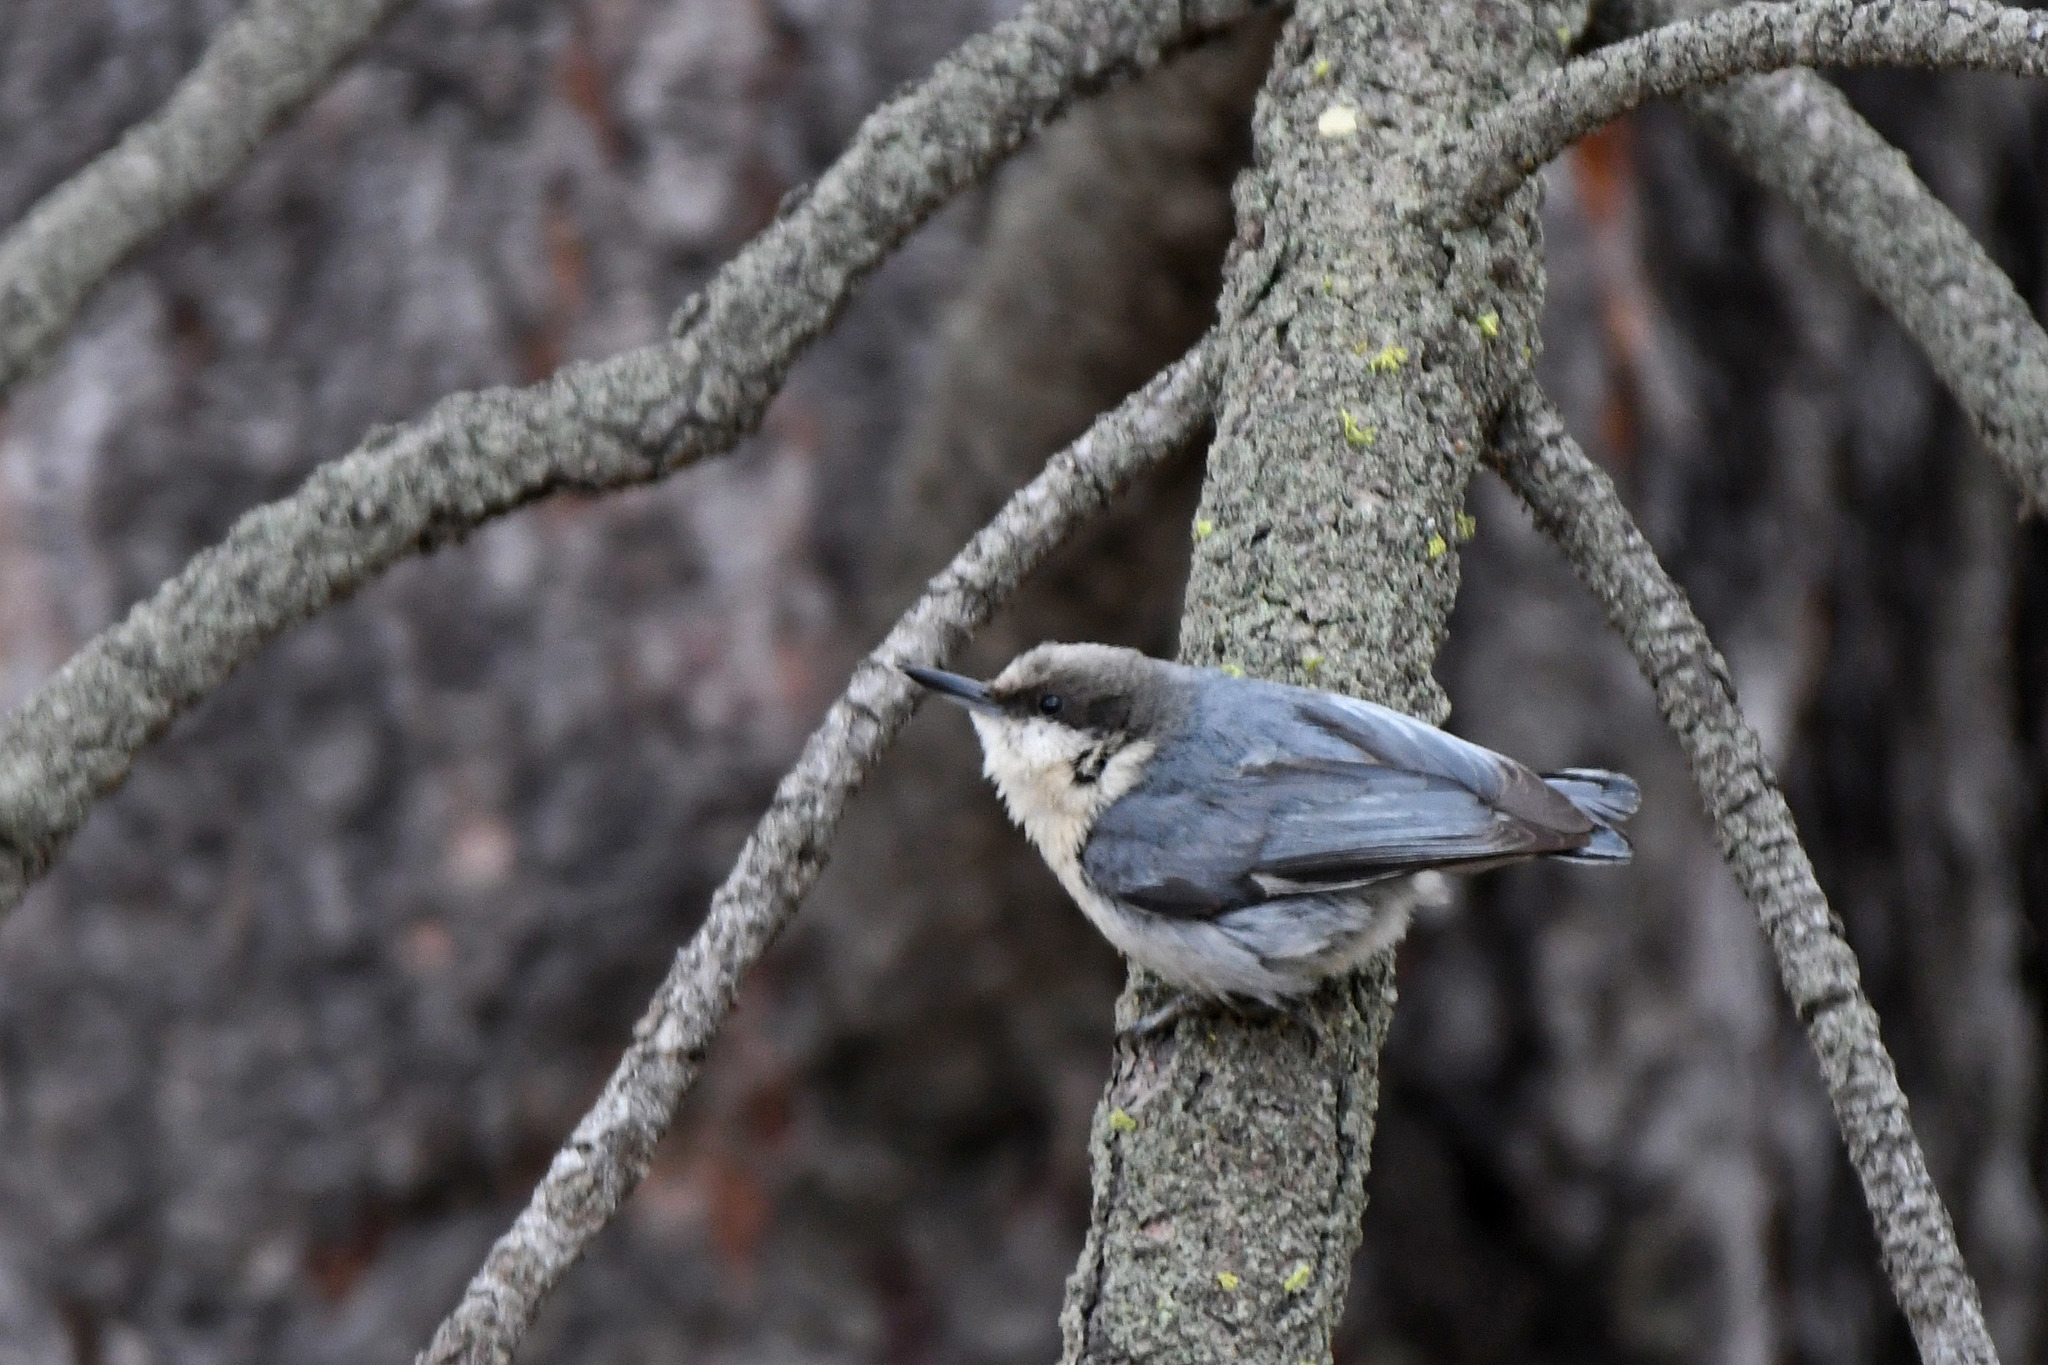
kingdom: Animalia
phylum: Chordata
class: Aves
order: Passeriformes
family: Sittidae
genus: Sitta
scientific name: Sitta pygmaea
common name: Pygmy nuthatch
